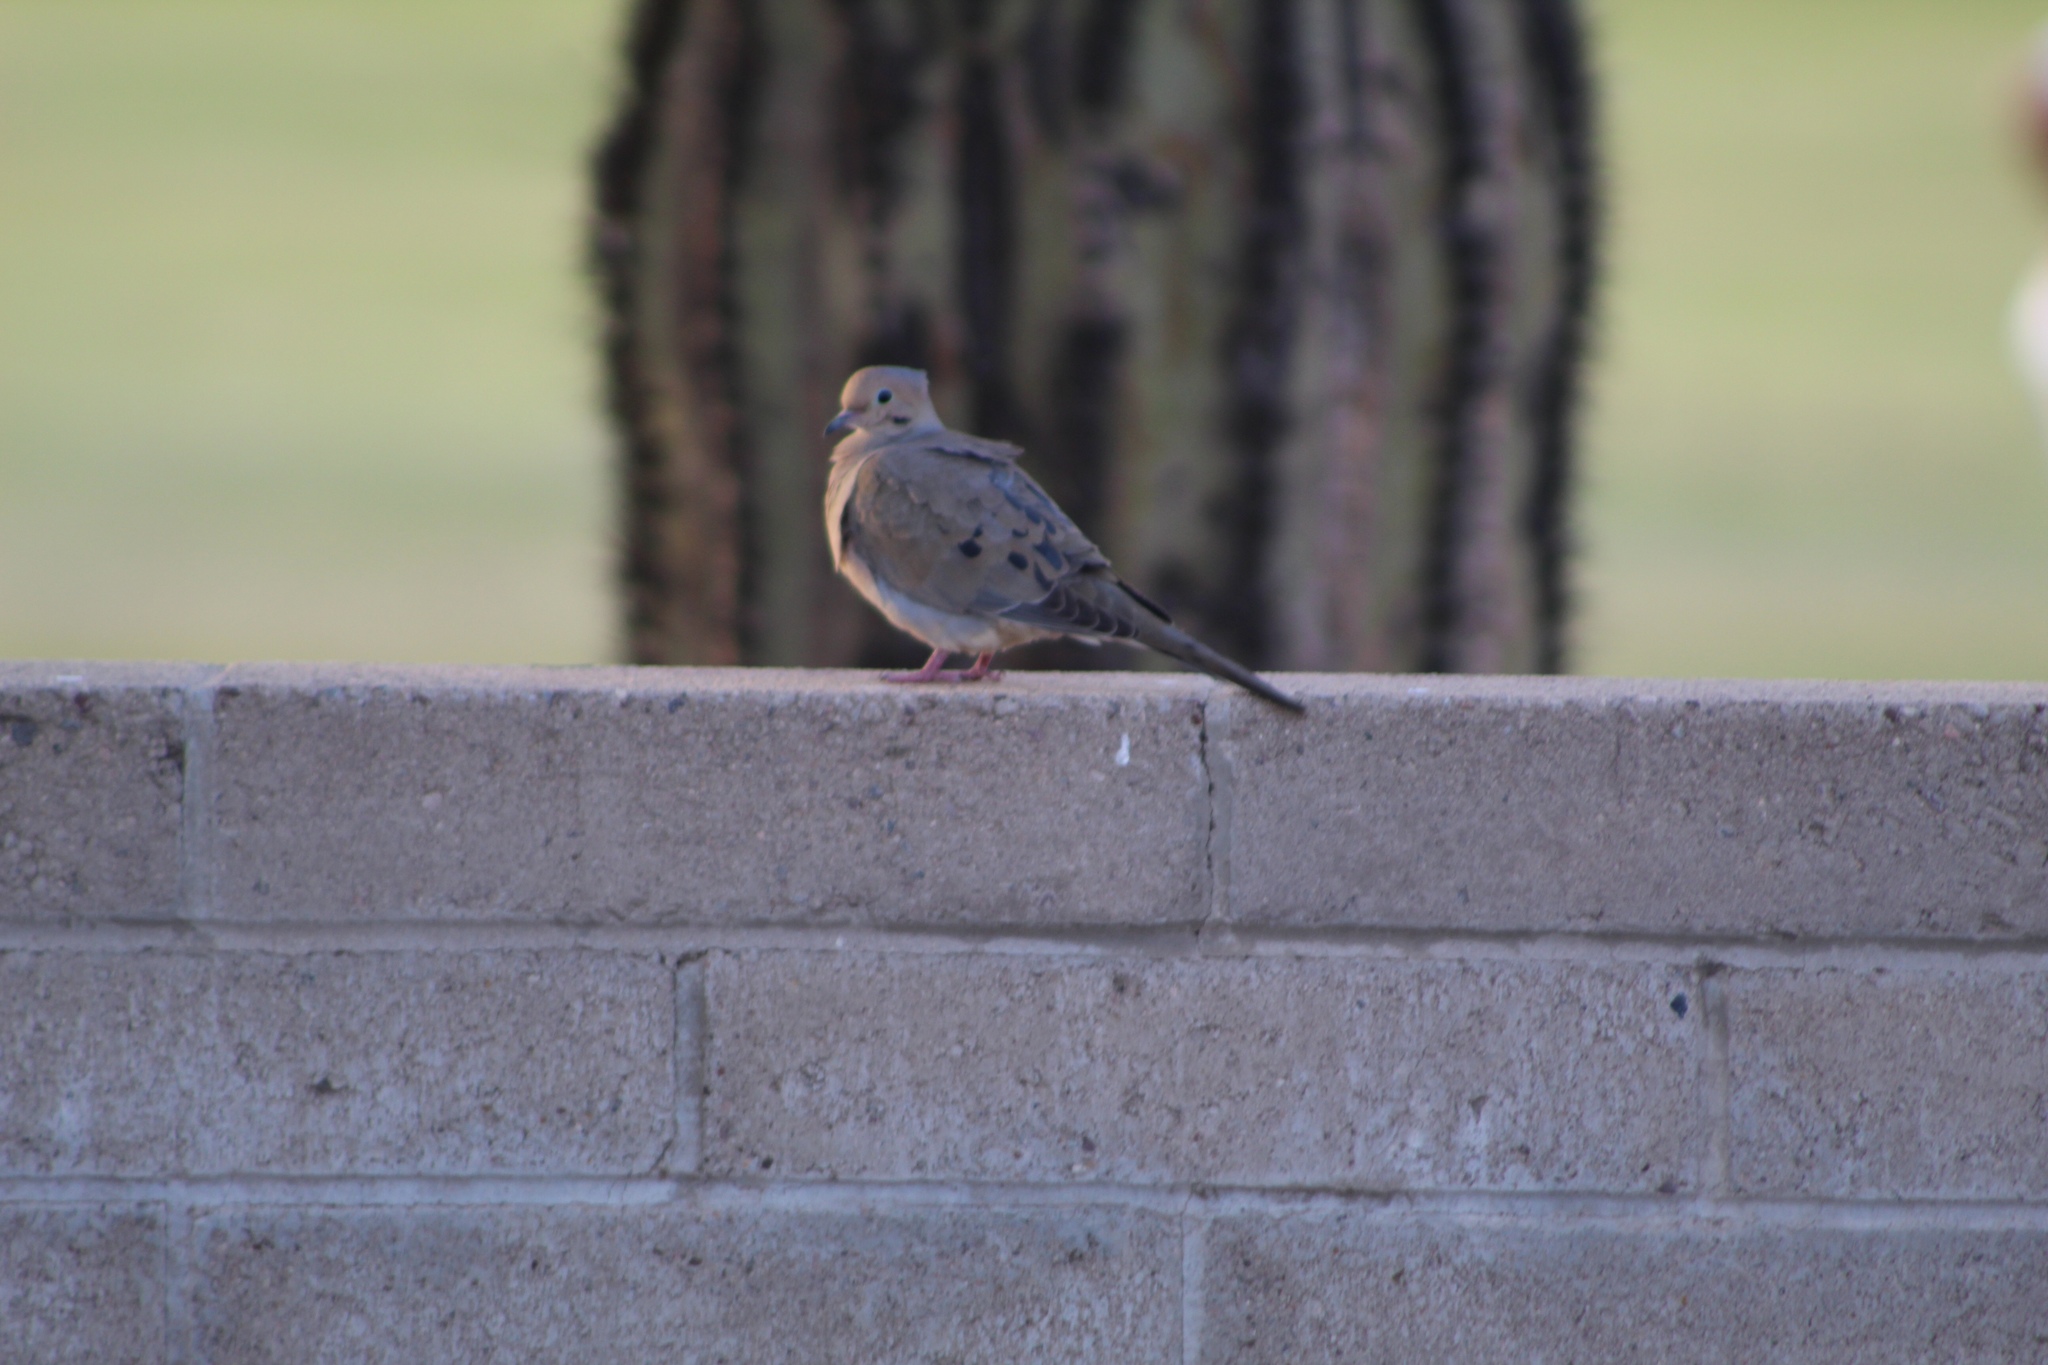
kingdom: Animalia
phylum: Chordata
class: Aves
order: Columbiformes
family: Columbidae
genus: Zenaida
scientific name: Zenaida macroura
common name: Mourning dove
